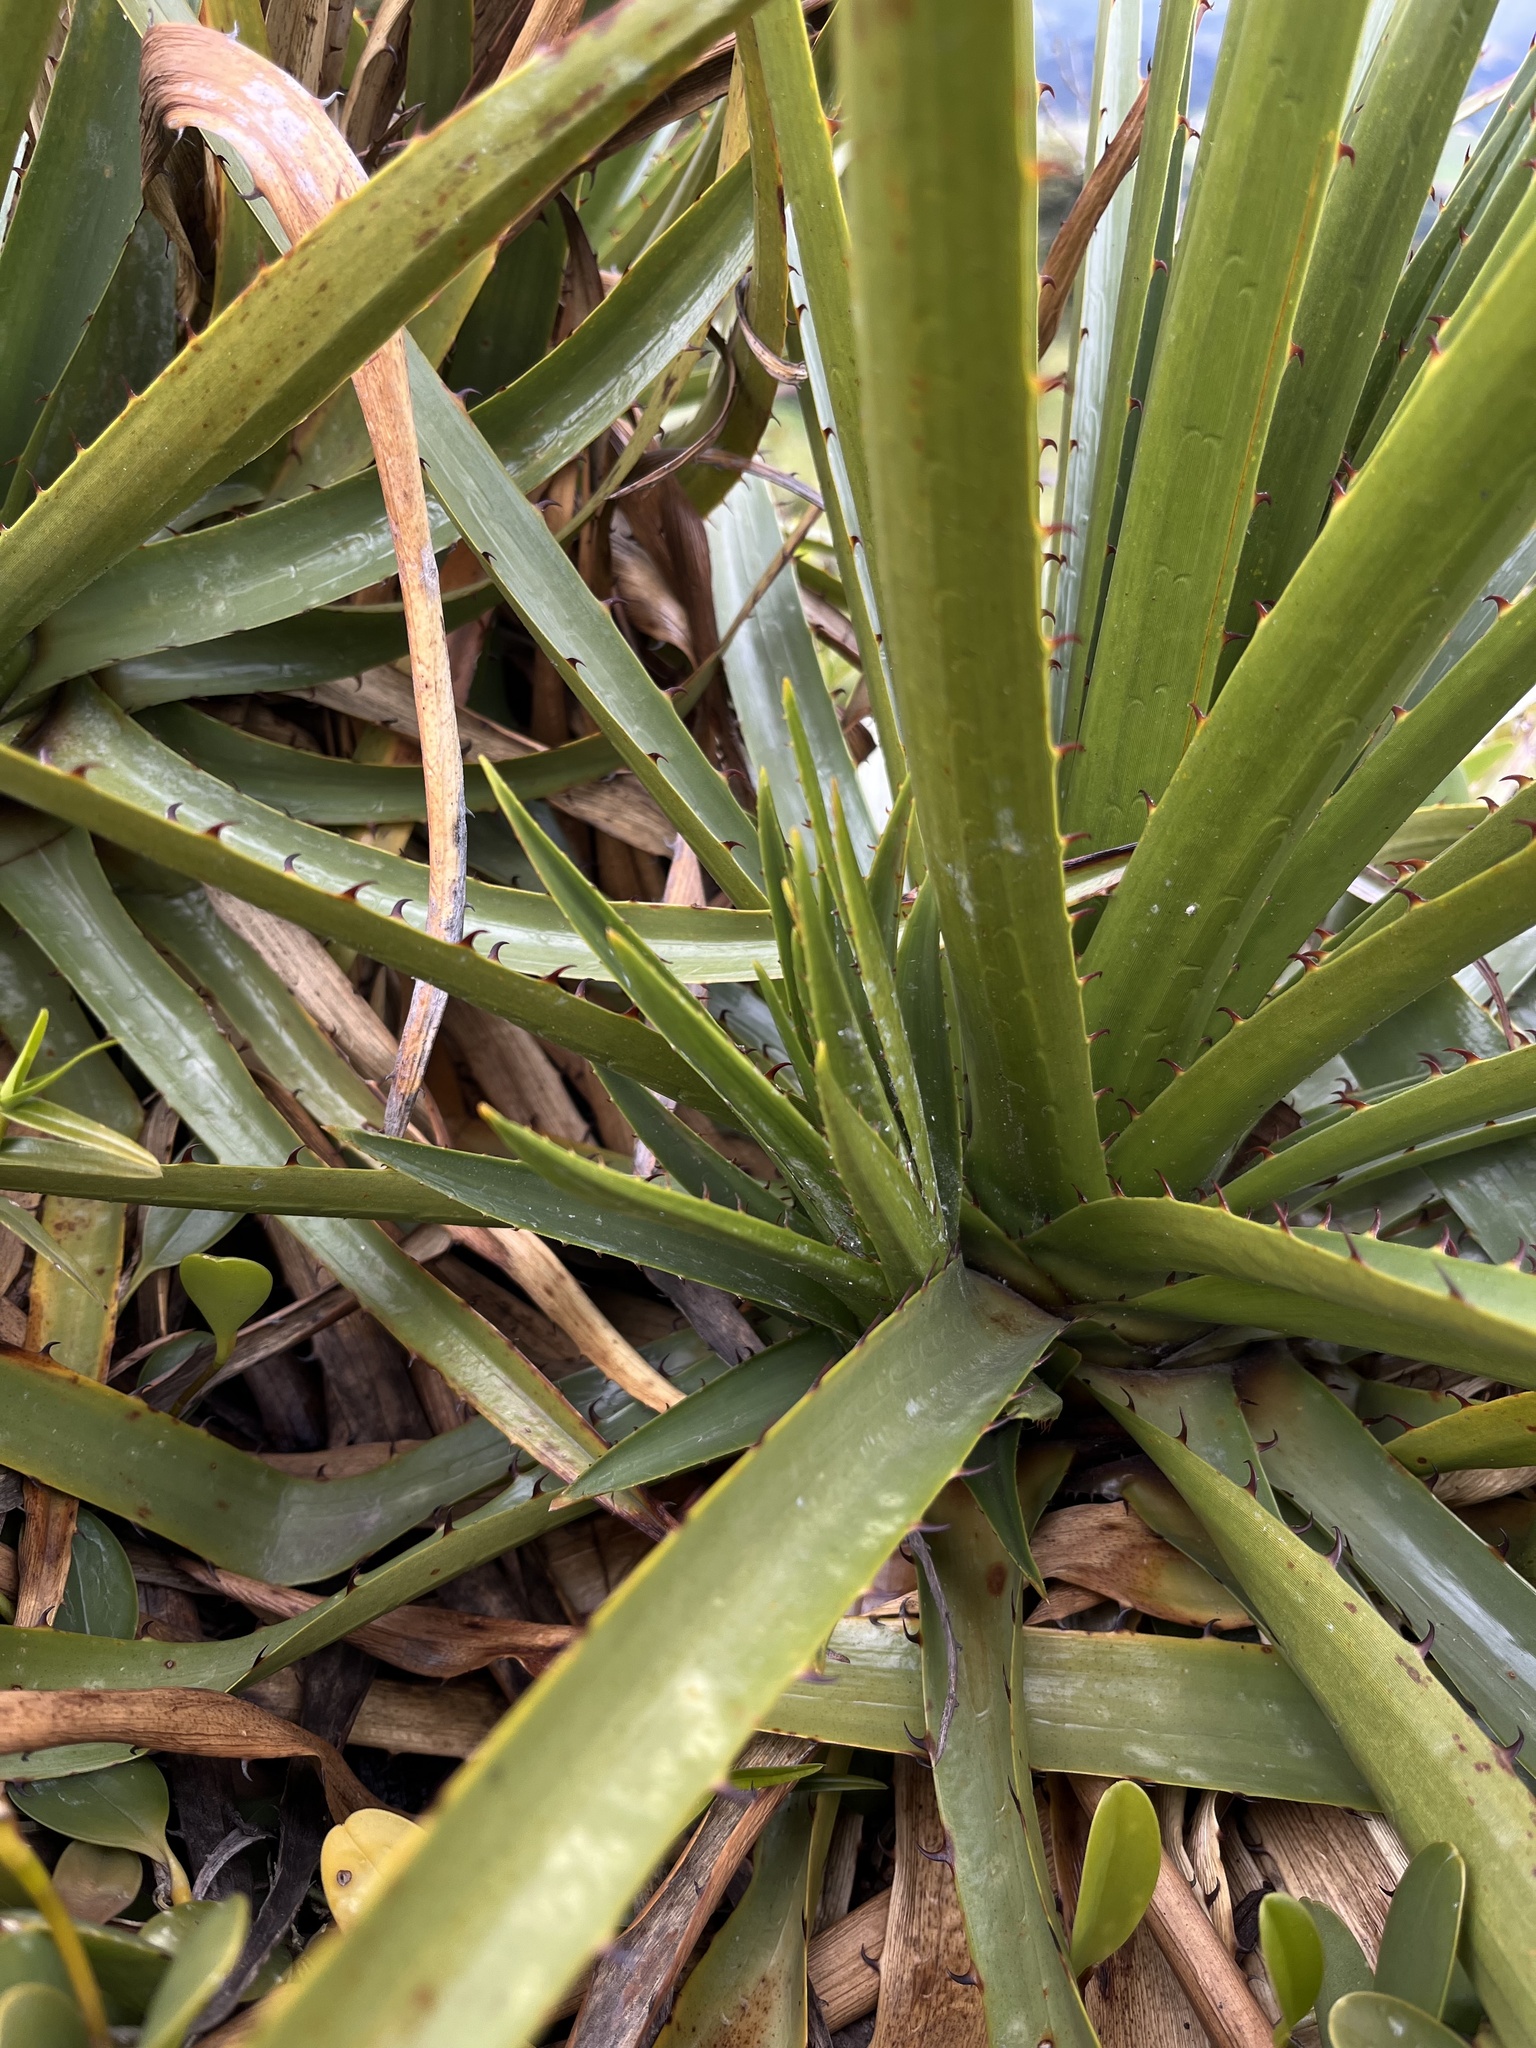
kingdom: Plantae
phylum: Tracheophyta
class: Liliopsida
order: Poales
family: Bromeliaceae
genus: Puya
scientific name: Puya nitida
